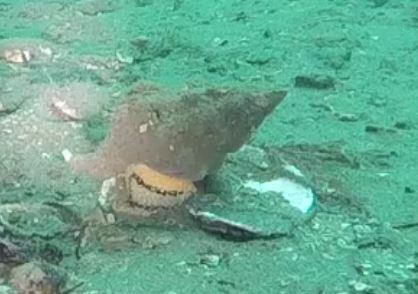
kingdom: Animalia
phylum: Mollusca
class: Gastropoda
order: Neogastropoda
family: Austrosiphonidae
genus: Kelletia
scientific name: Kelletia kelletii
